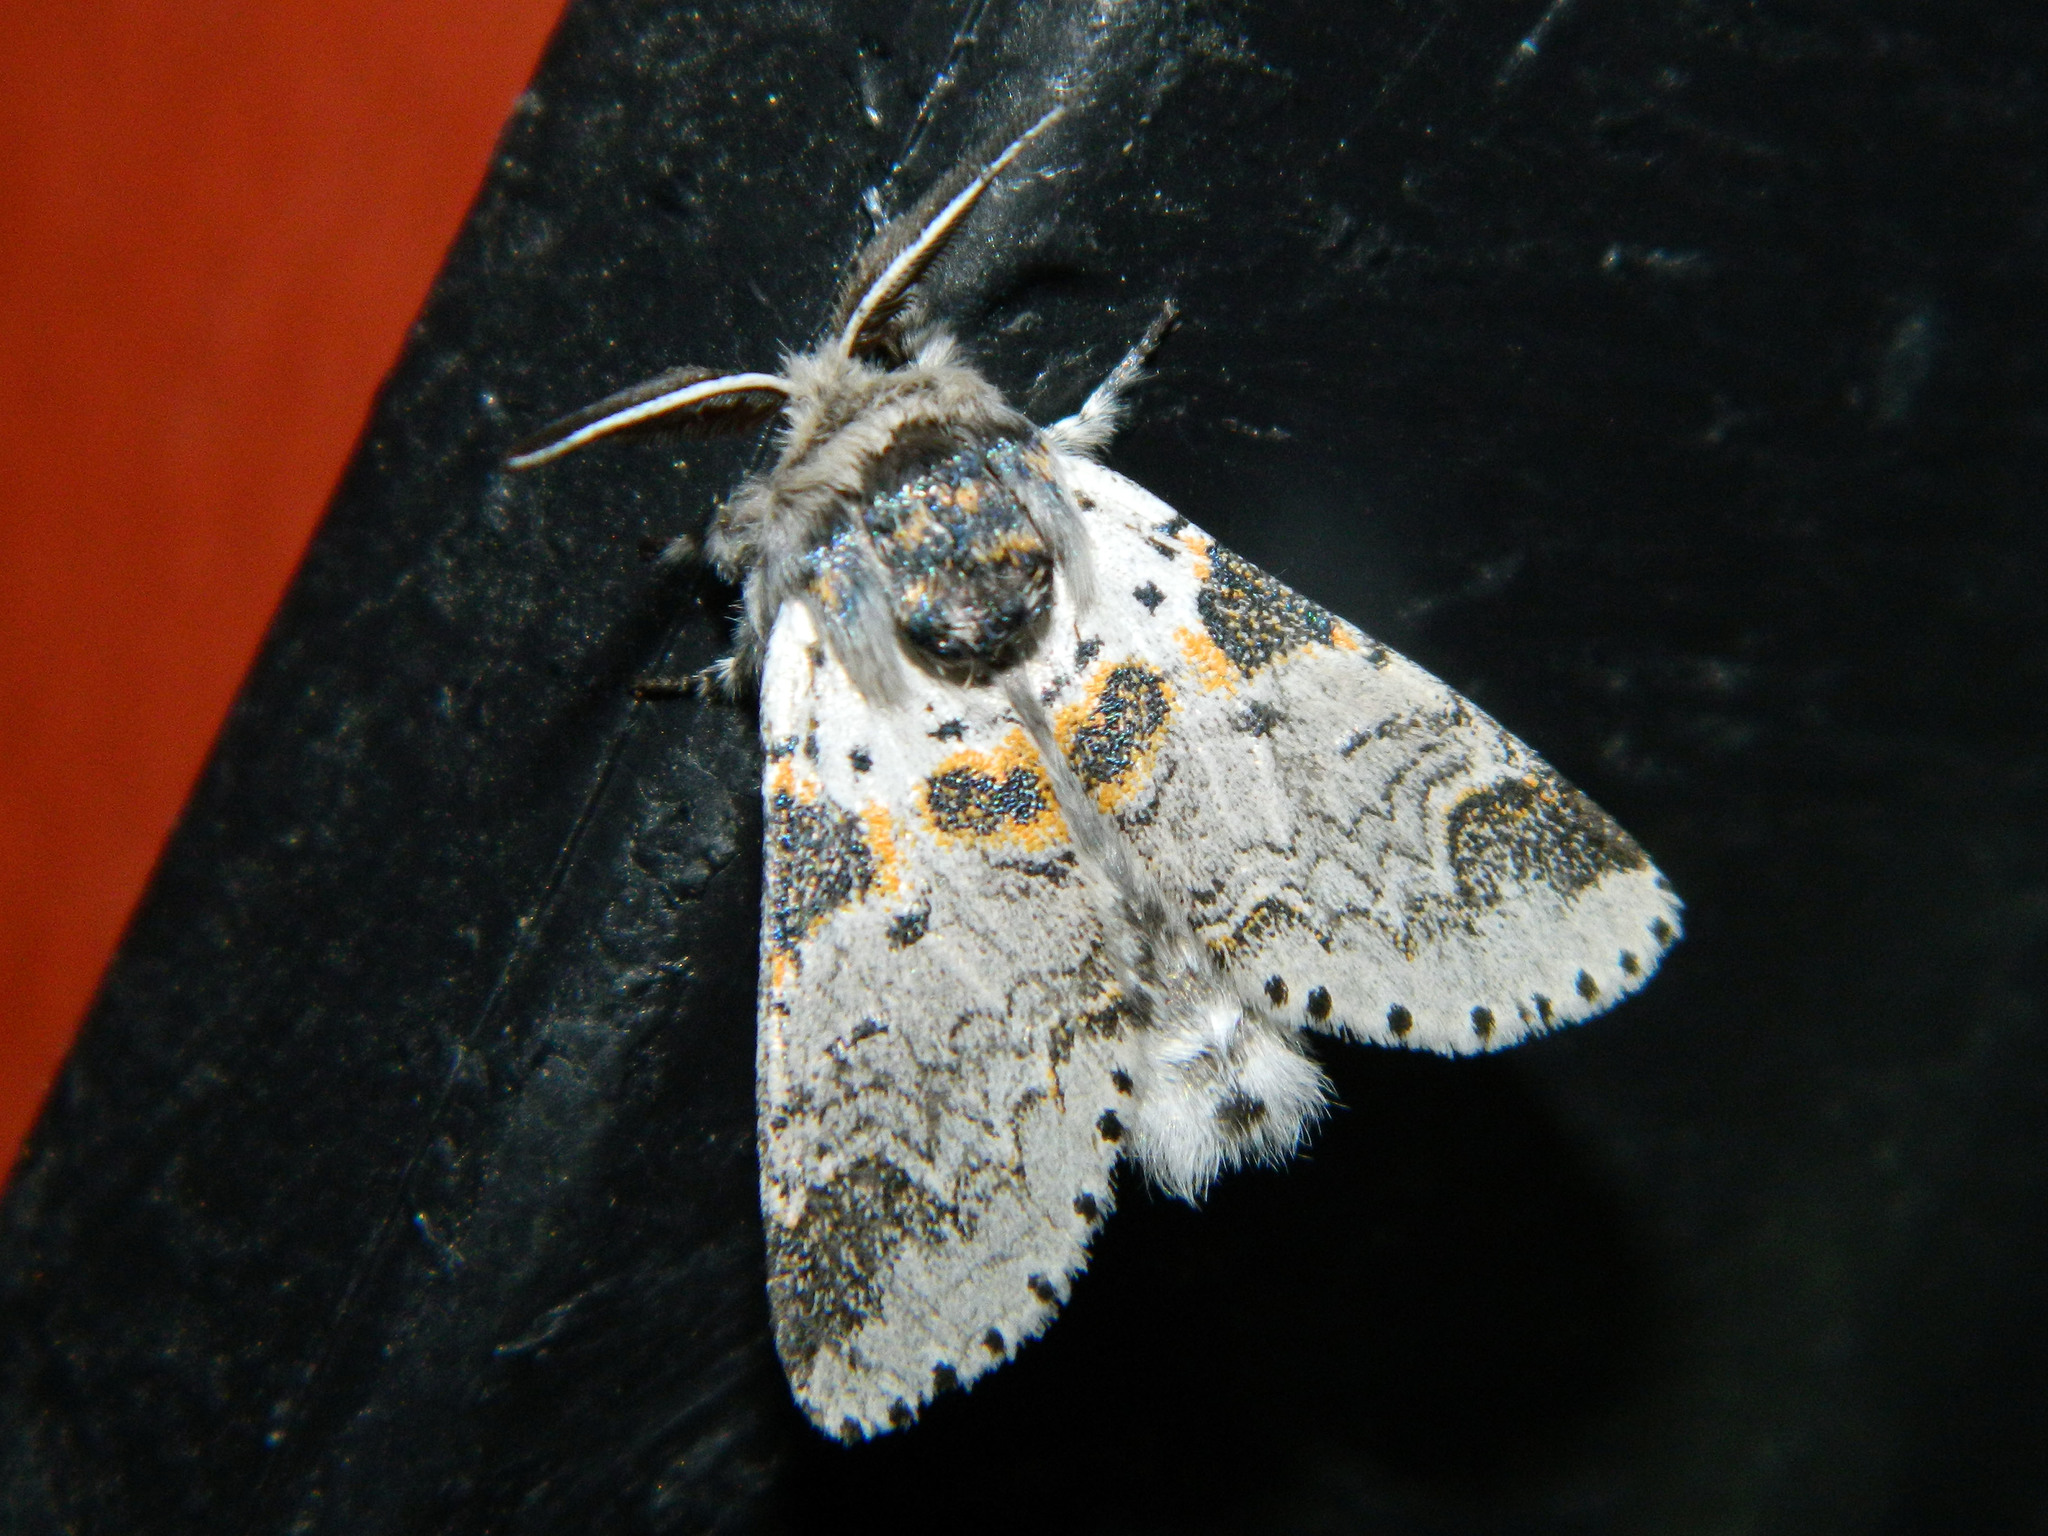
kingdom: Animalia
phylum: Arthropoda
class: Insecta
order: Lepidoptera
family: Notodontidae
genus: Furcula
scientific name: Furcula occidentalis
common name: Western furcula moth
